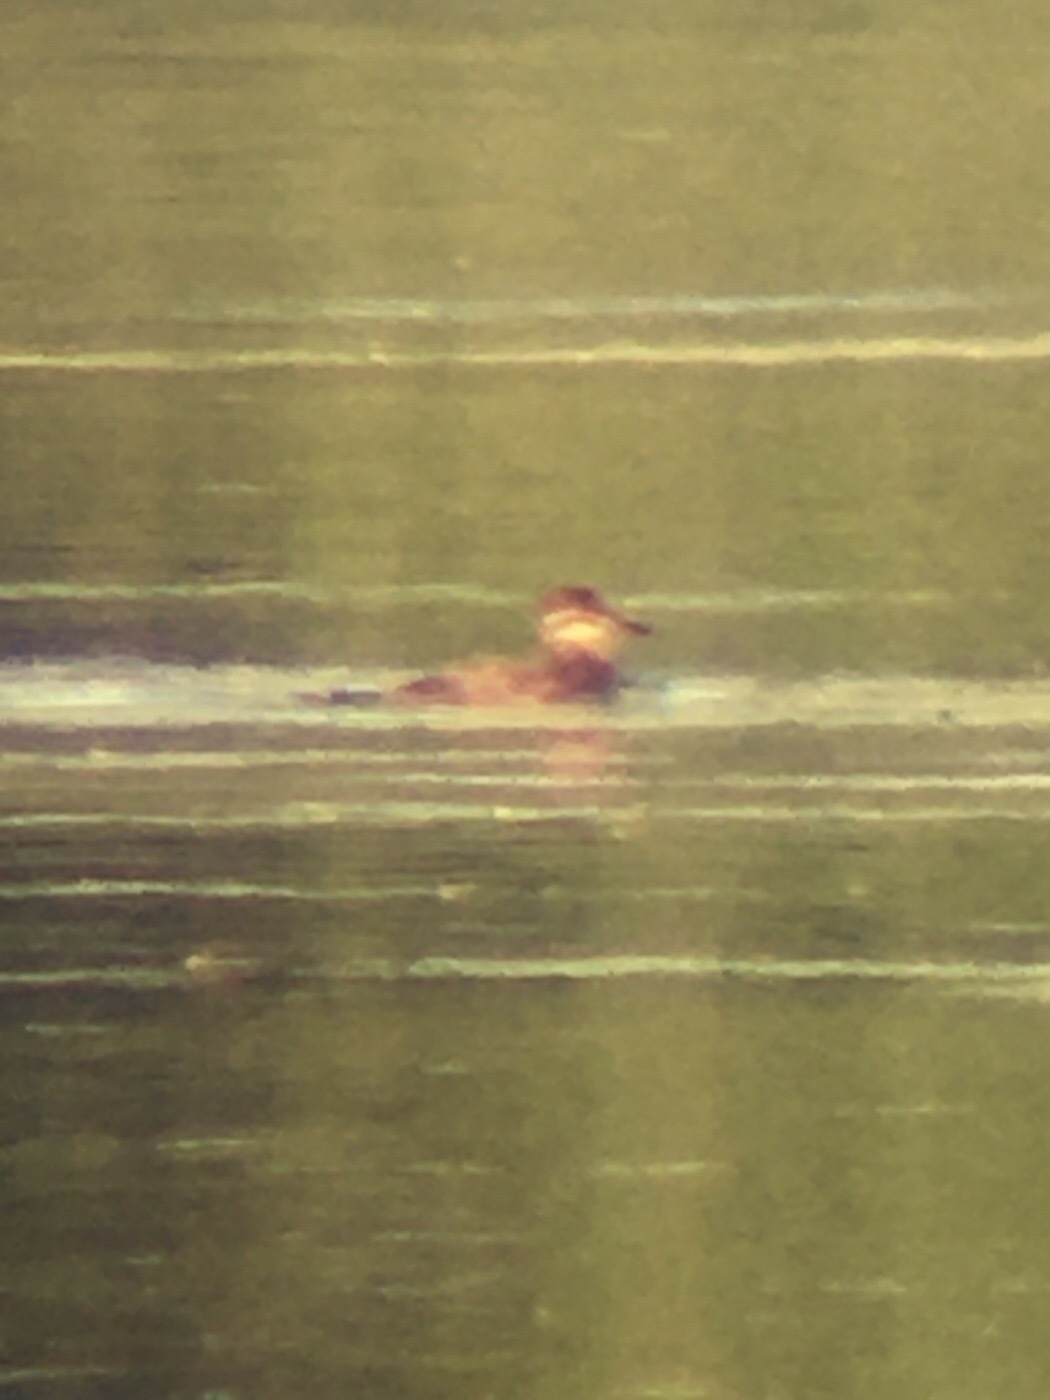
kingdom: Animalia
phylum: Chordata
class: Aves
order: Anseriformes
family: Anatidae
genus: Oxyura
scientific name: Oxyura jamaicensis
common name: Ruddy duck
